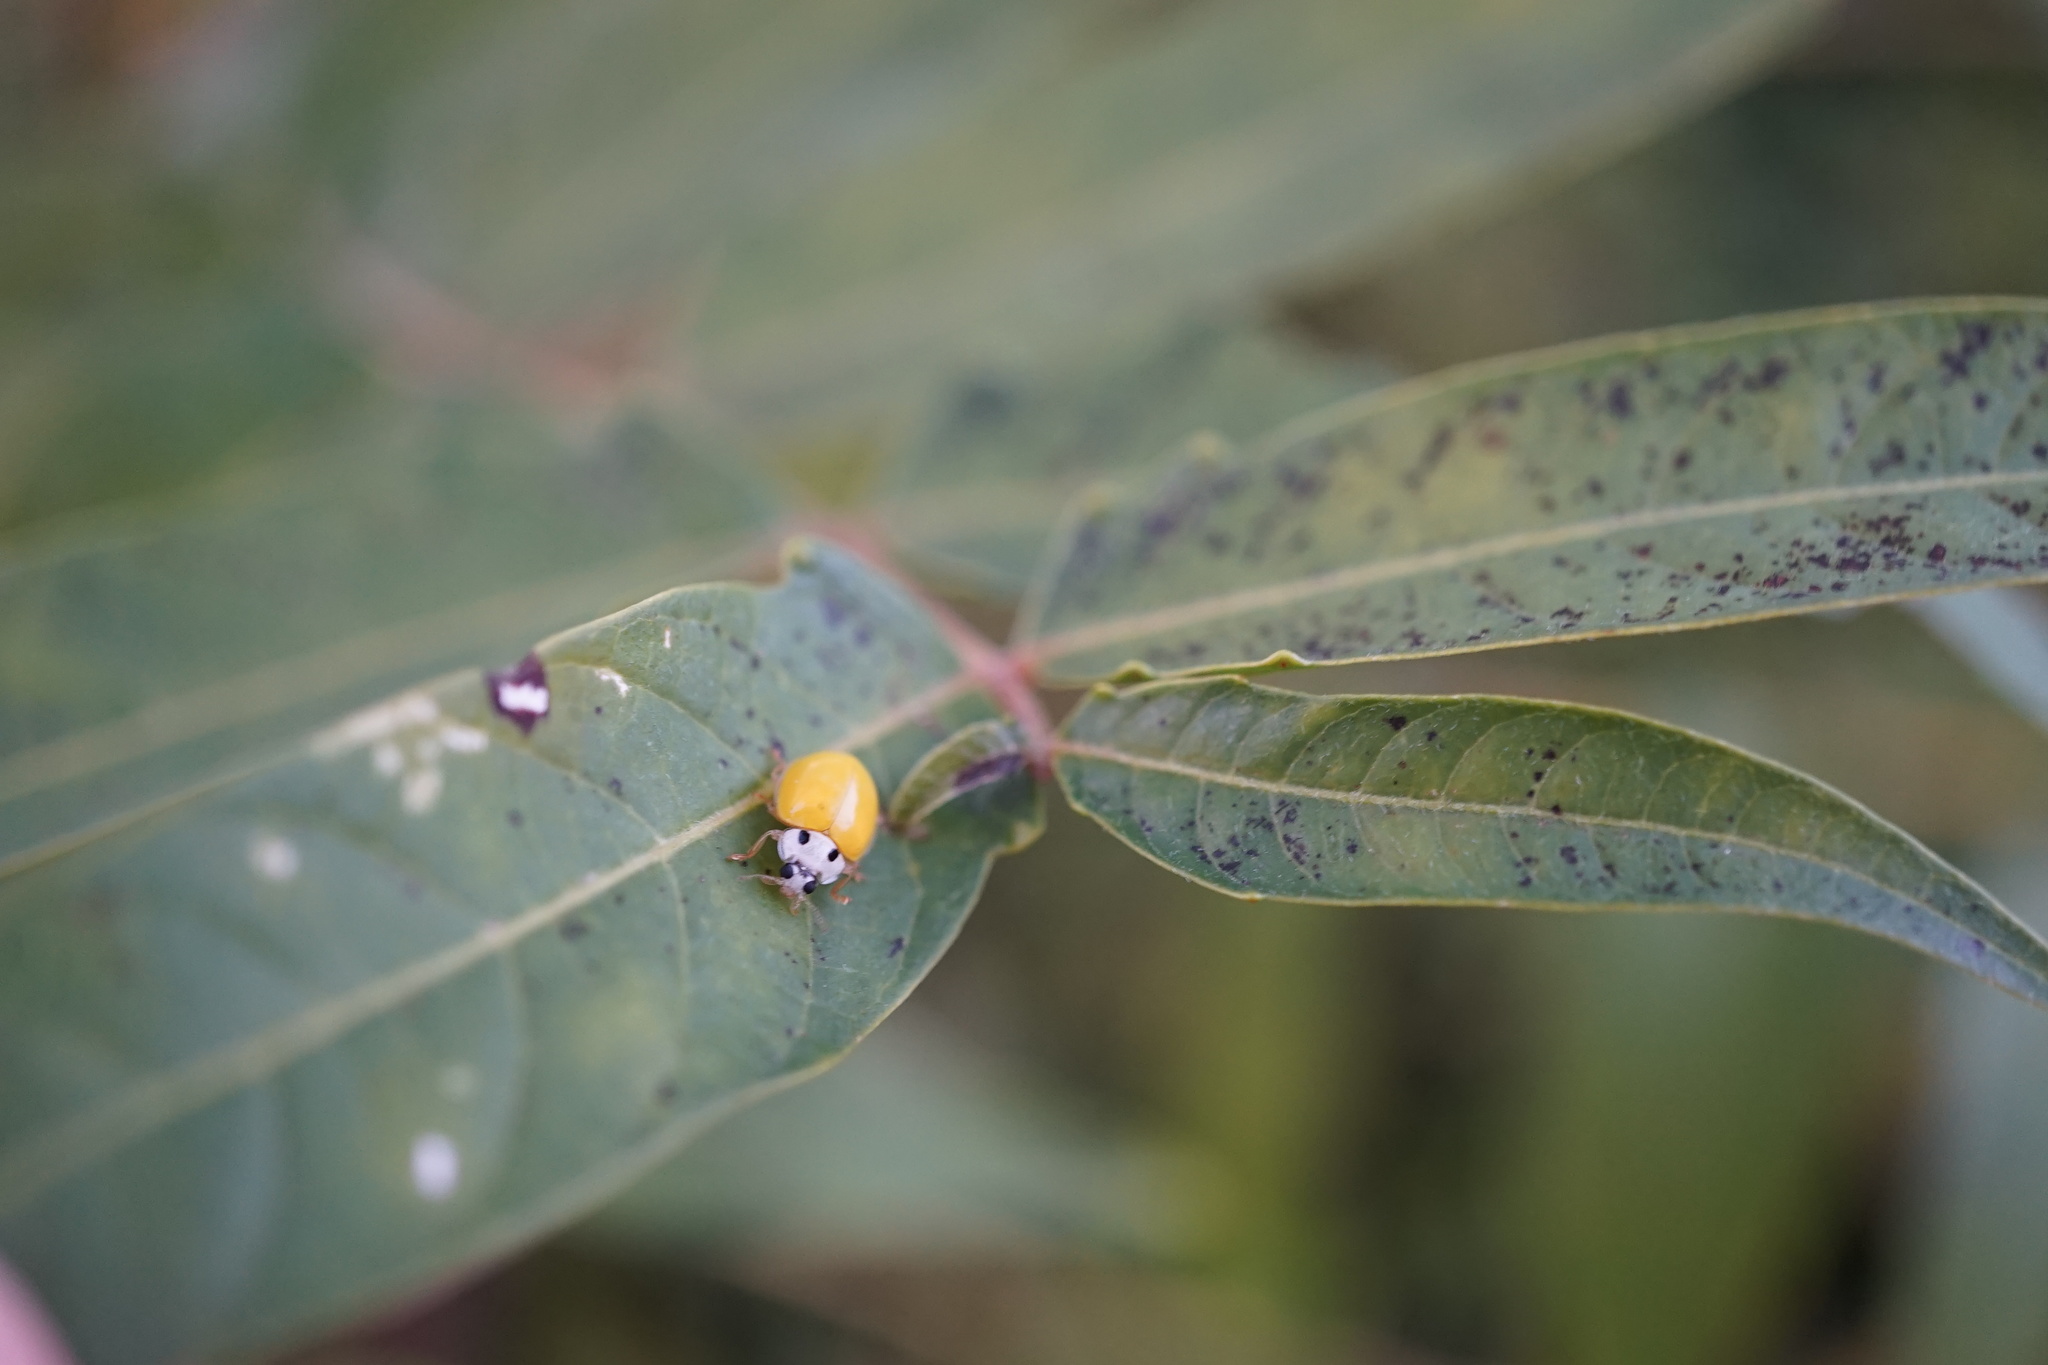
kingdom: Animalia
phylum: Arthropoda
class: Insecta
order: Coleoptera
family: Coccinellidae
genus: Illeis
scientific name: Illeis koebelei
